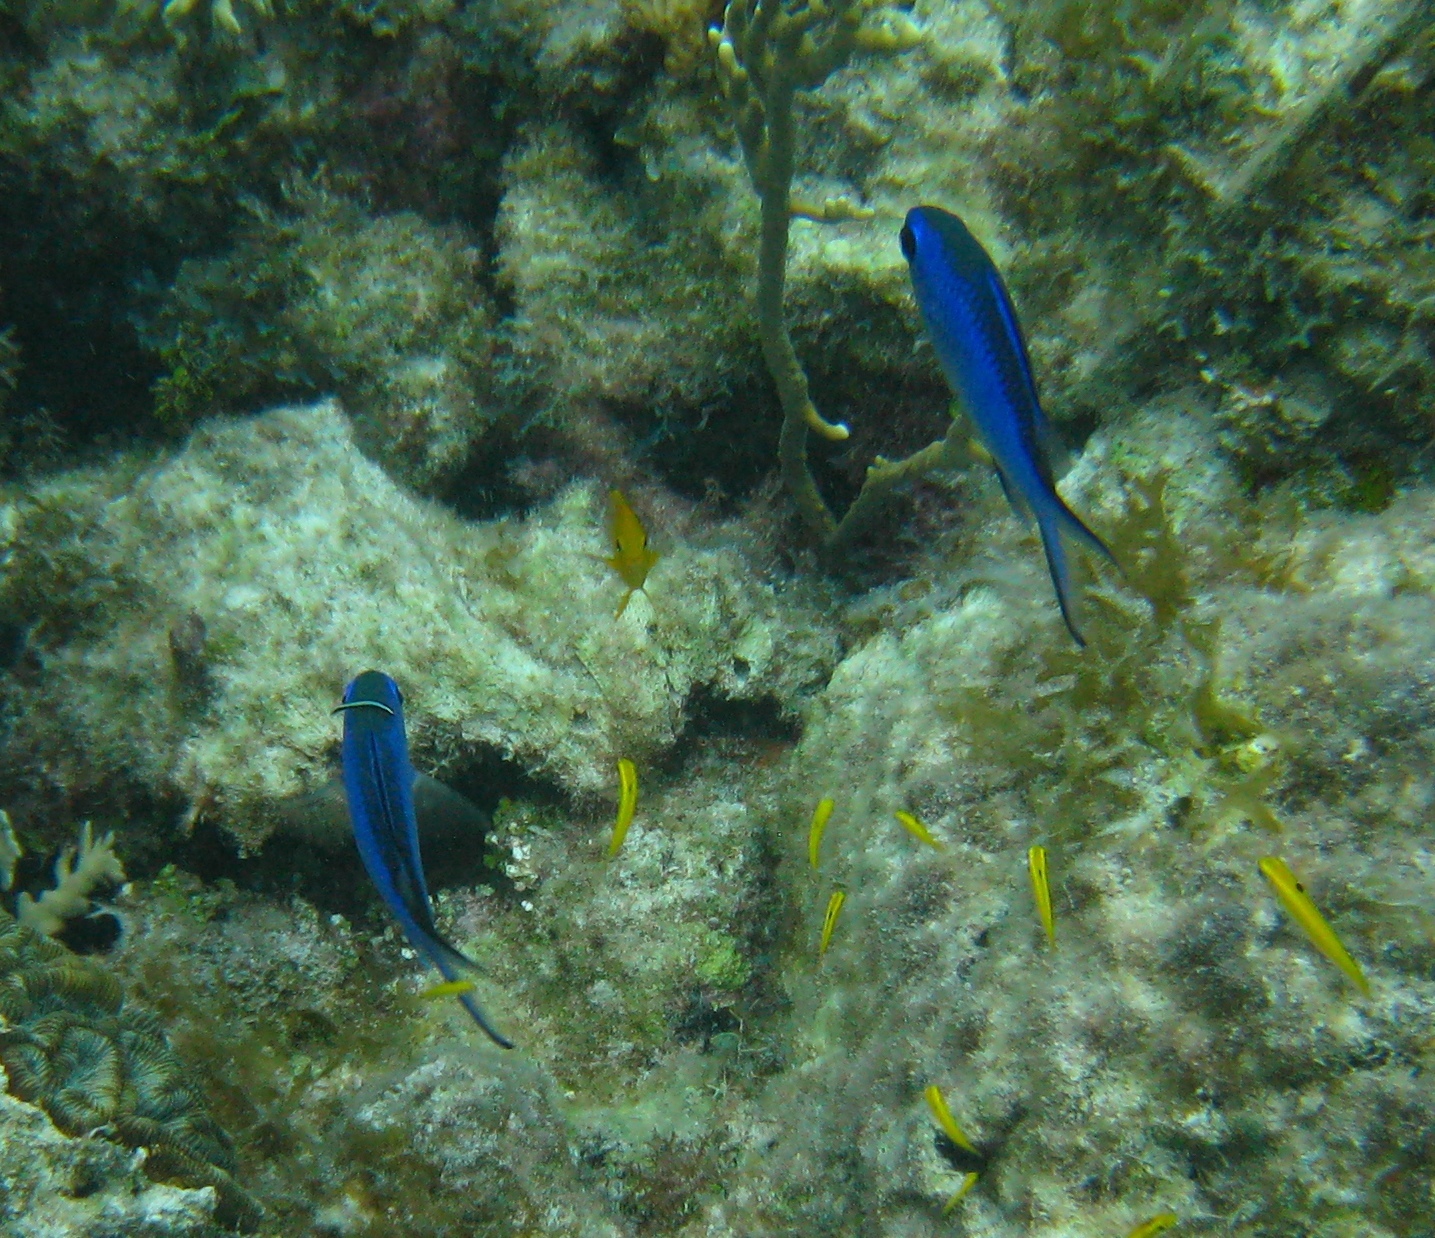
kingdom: Animalia
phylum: Chordata
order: Perciformes
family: Pomacentridae
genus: Chromis
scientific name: Chromis cyanea
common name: Blue chromis
